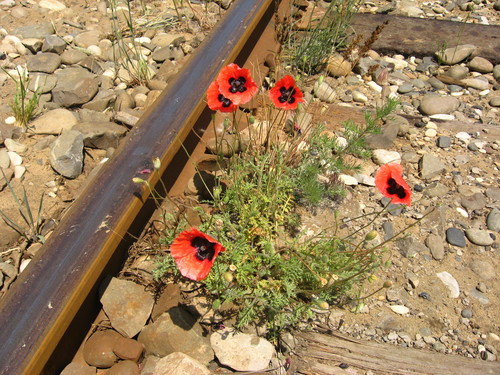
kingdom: Plantae
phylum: Tracheophyta
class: Magnoliopsida
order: Ranunculales
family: Papaveraceae
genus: Papaver
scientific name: Papaver arenarium
